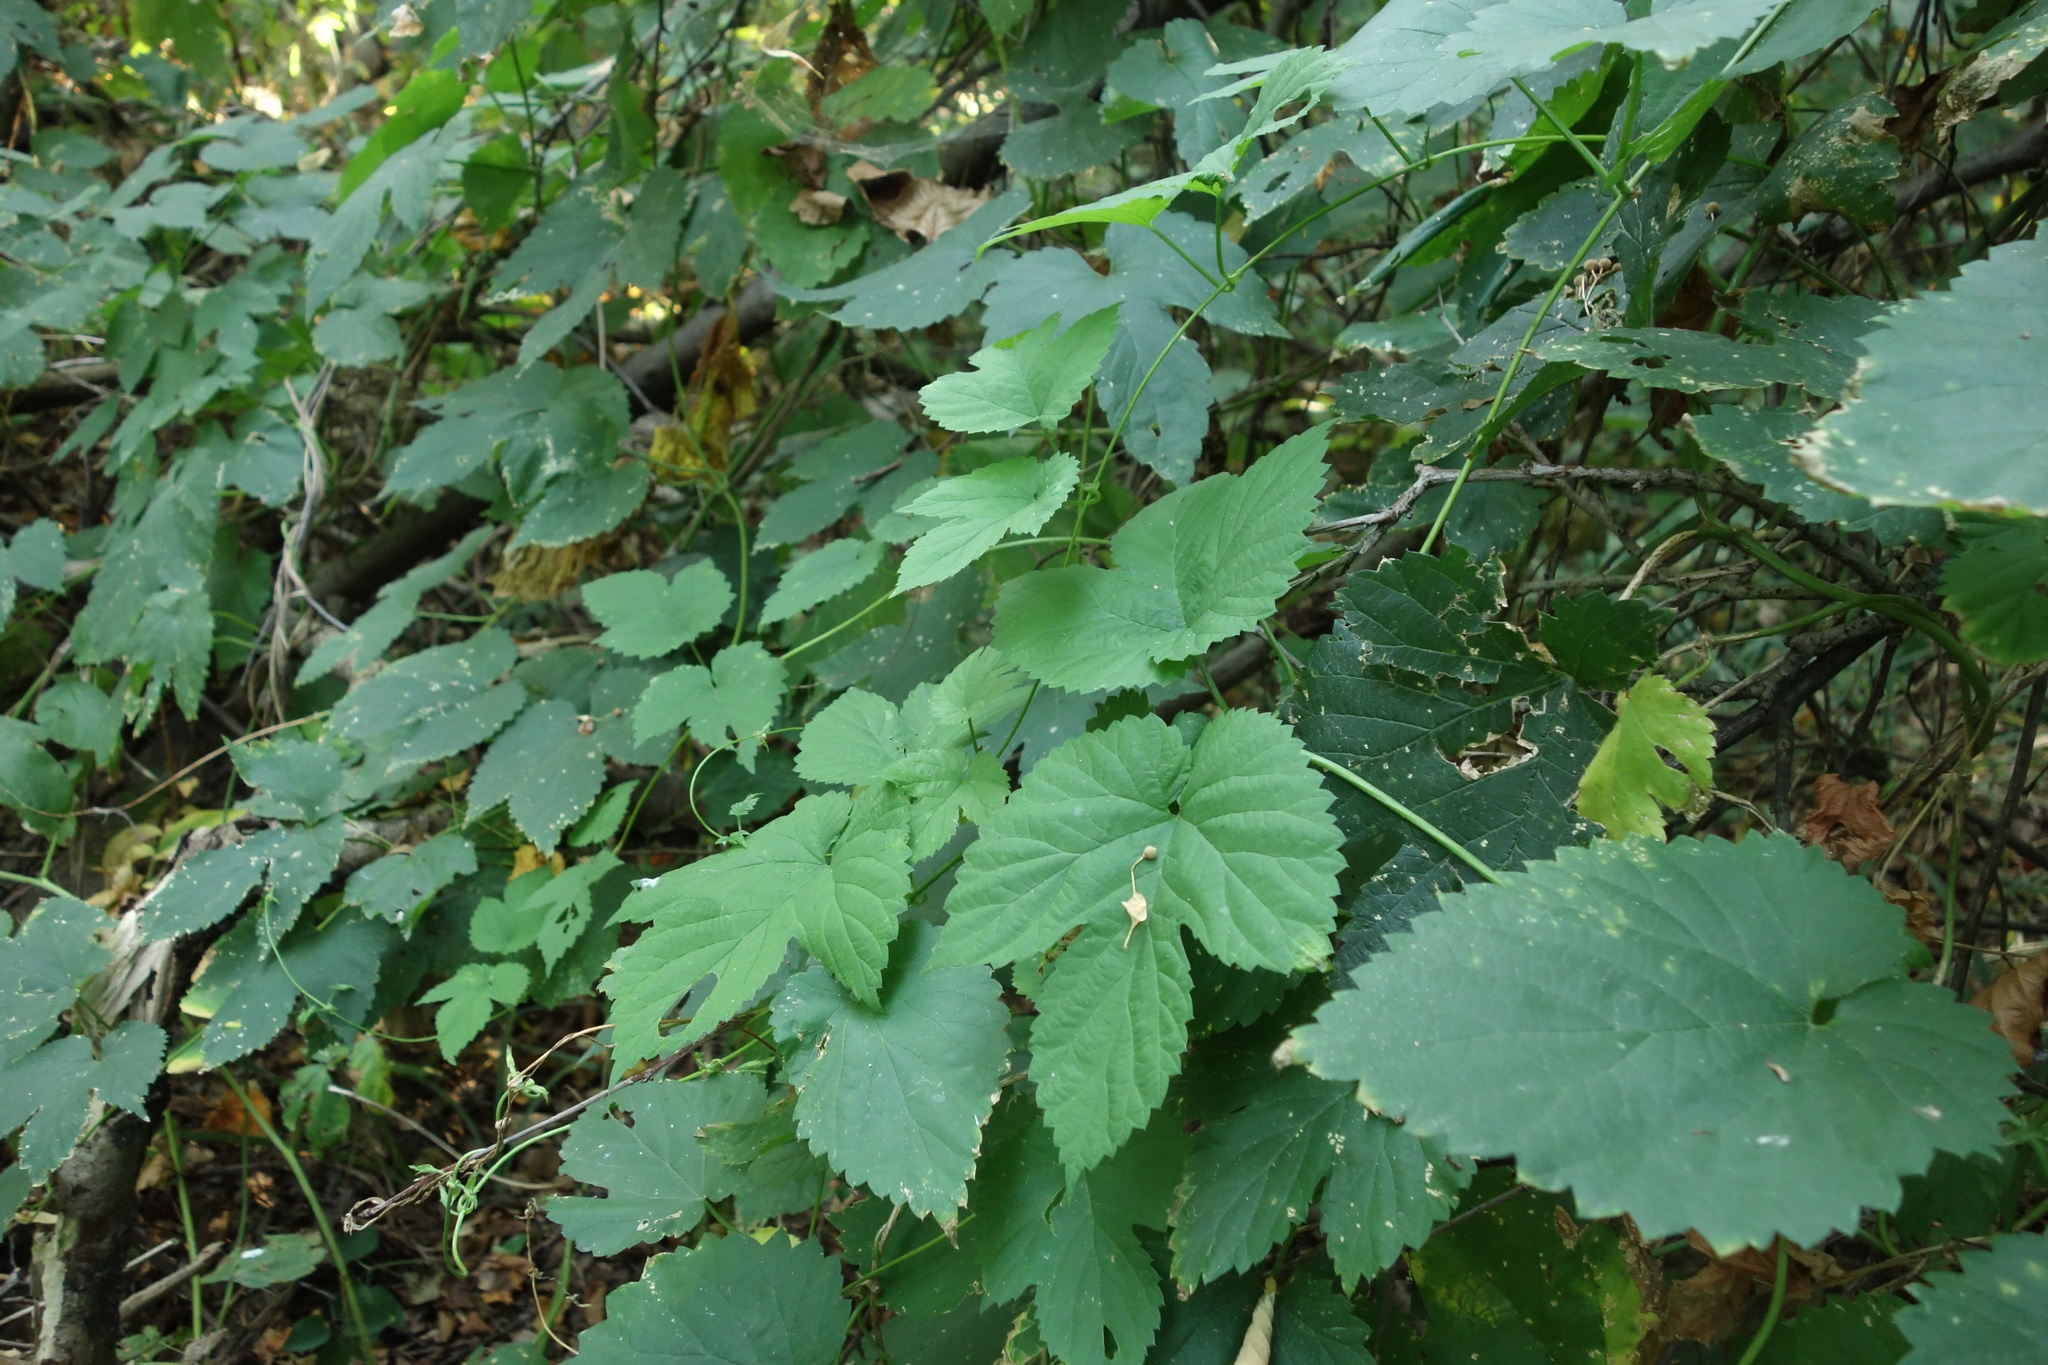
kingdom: Plantae
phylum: Tracheophyta
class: Magnoliopsida
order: Rosales
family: Cannabaceae
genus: Humulus
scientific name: Humulus lupulus
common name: Hop
